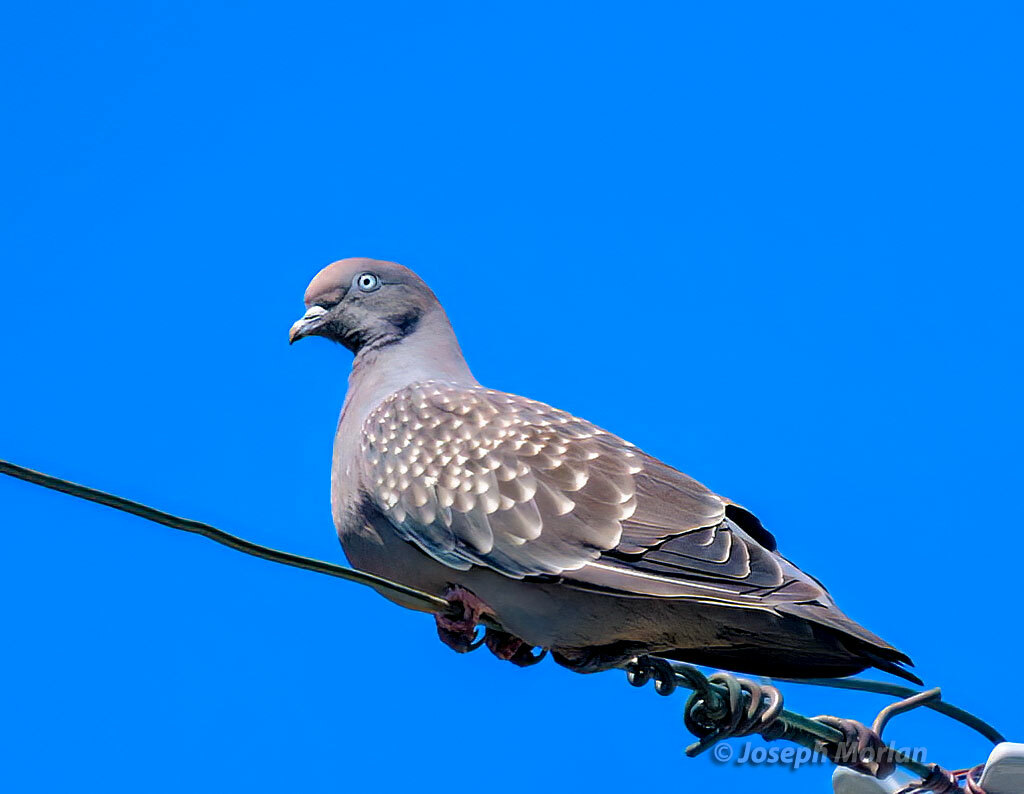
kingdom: Animalia
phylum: Chordata
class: Aves
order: Columbiformes
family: Columbidae
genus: Patagioenas
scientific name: Patagioenas maculosa
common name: Spot-winged pigeon
